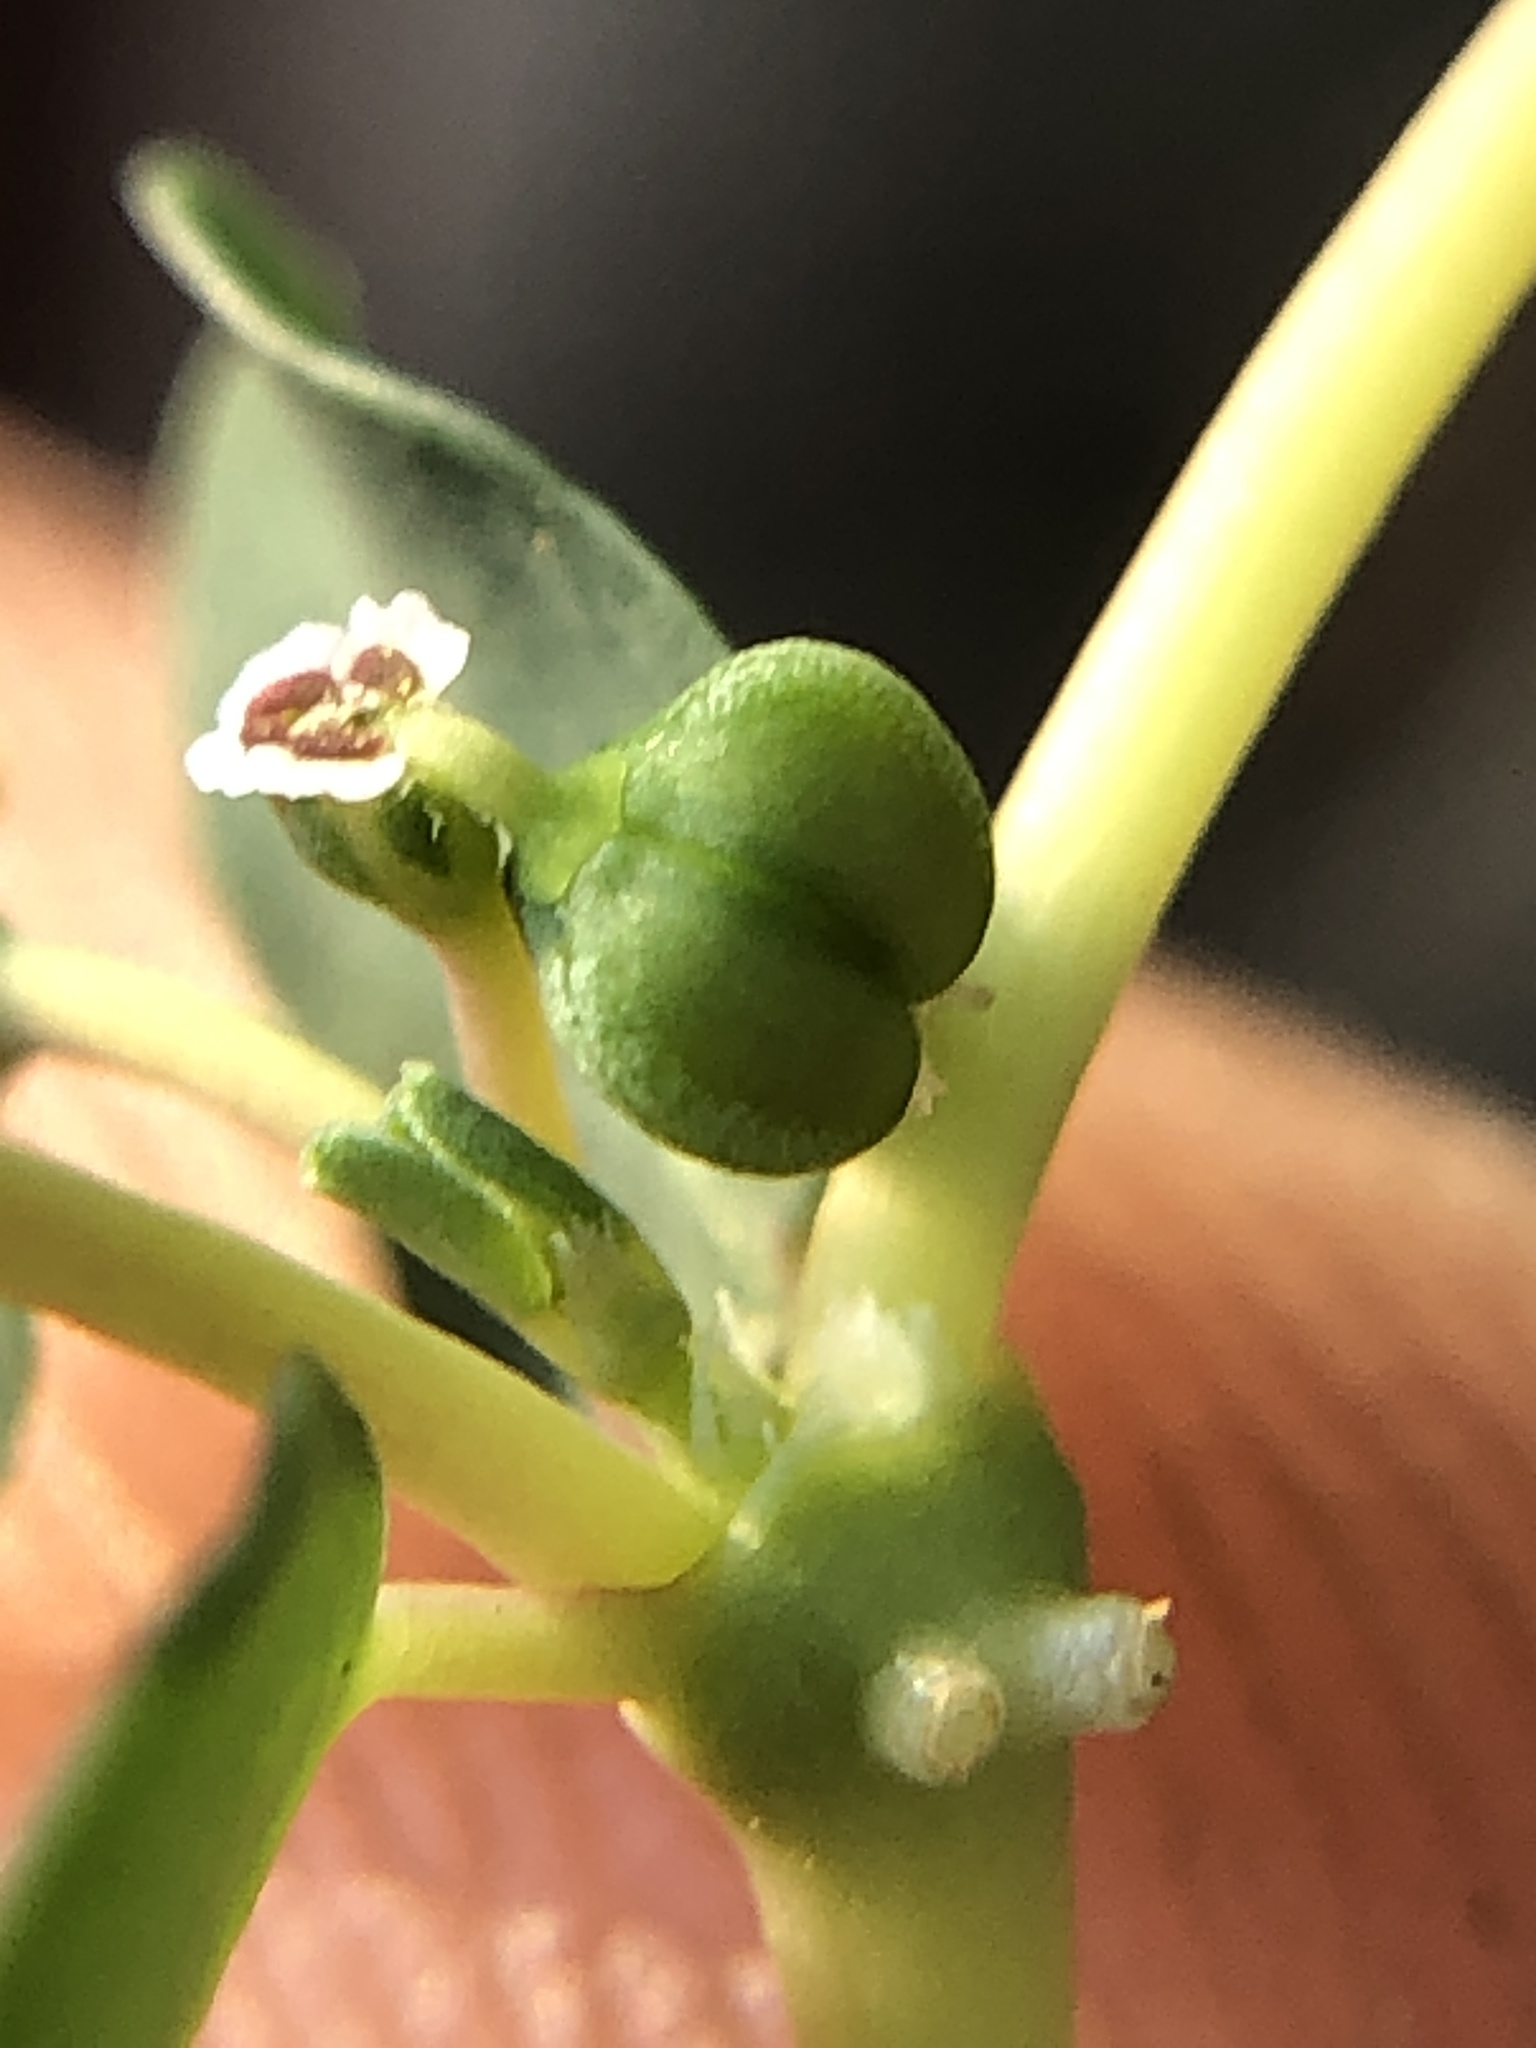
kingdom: Plantae
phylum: Tracheophyta
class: Magnoliopsida
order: Malpighiales
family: Euphorbiaceae
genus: Euphorbia
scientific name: Euphorbia serpens
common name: Matted sandmat
